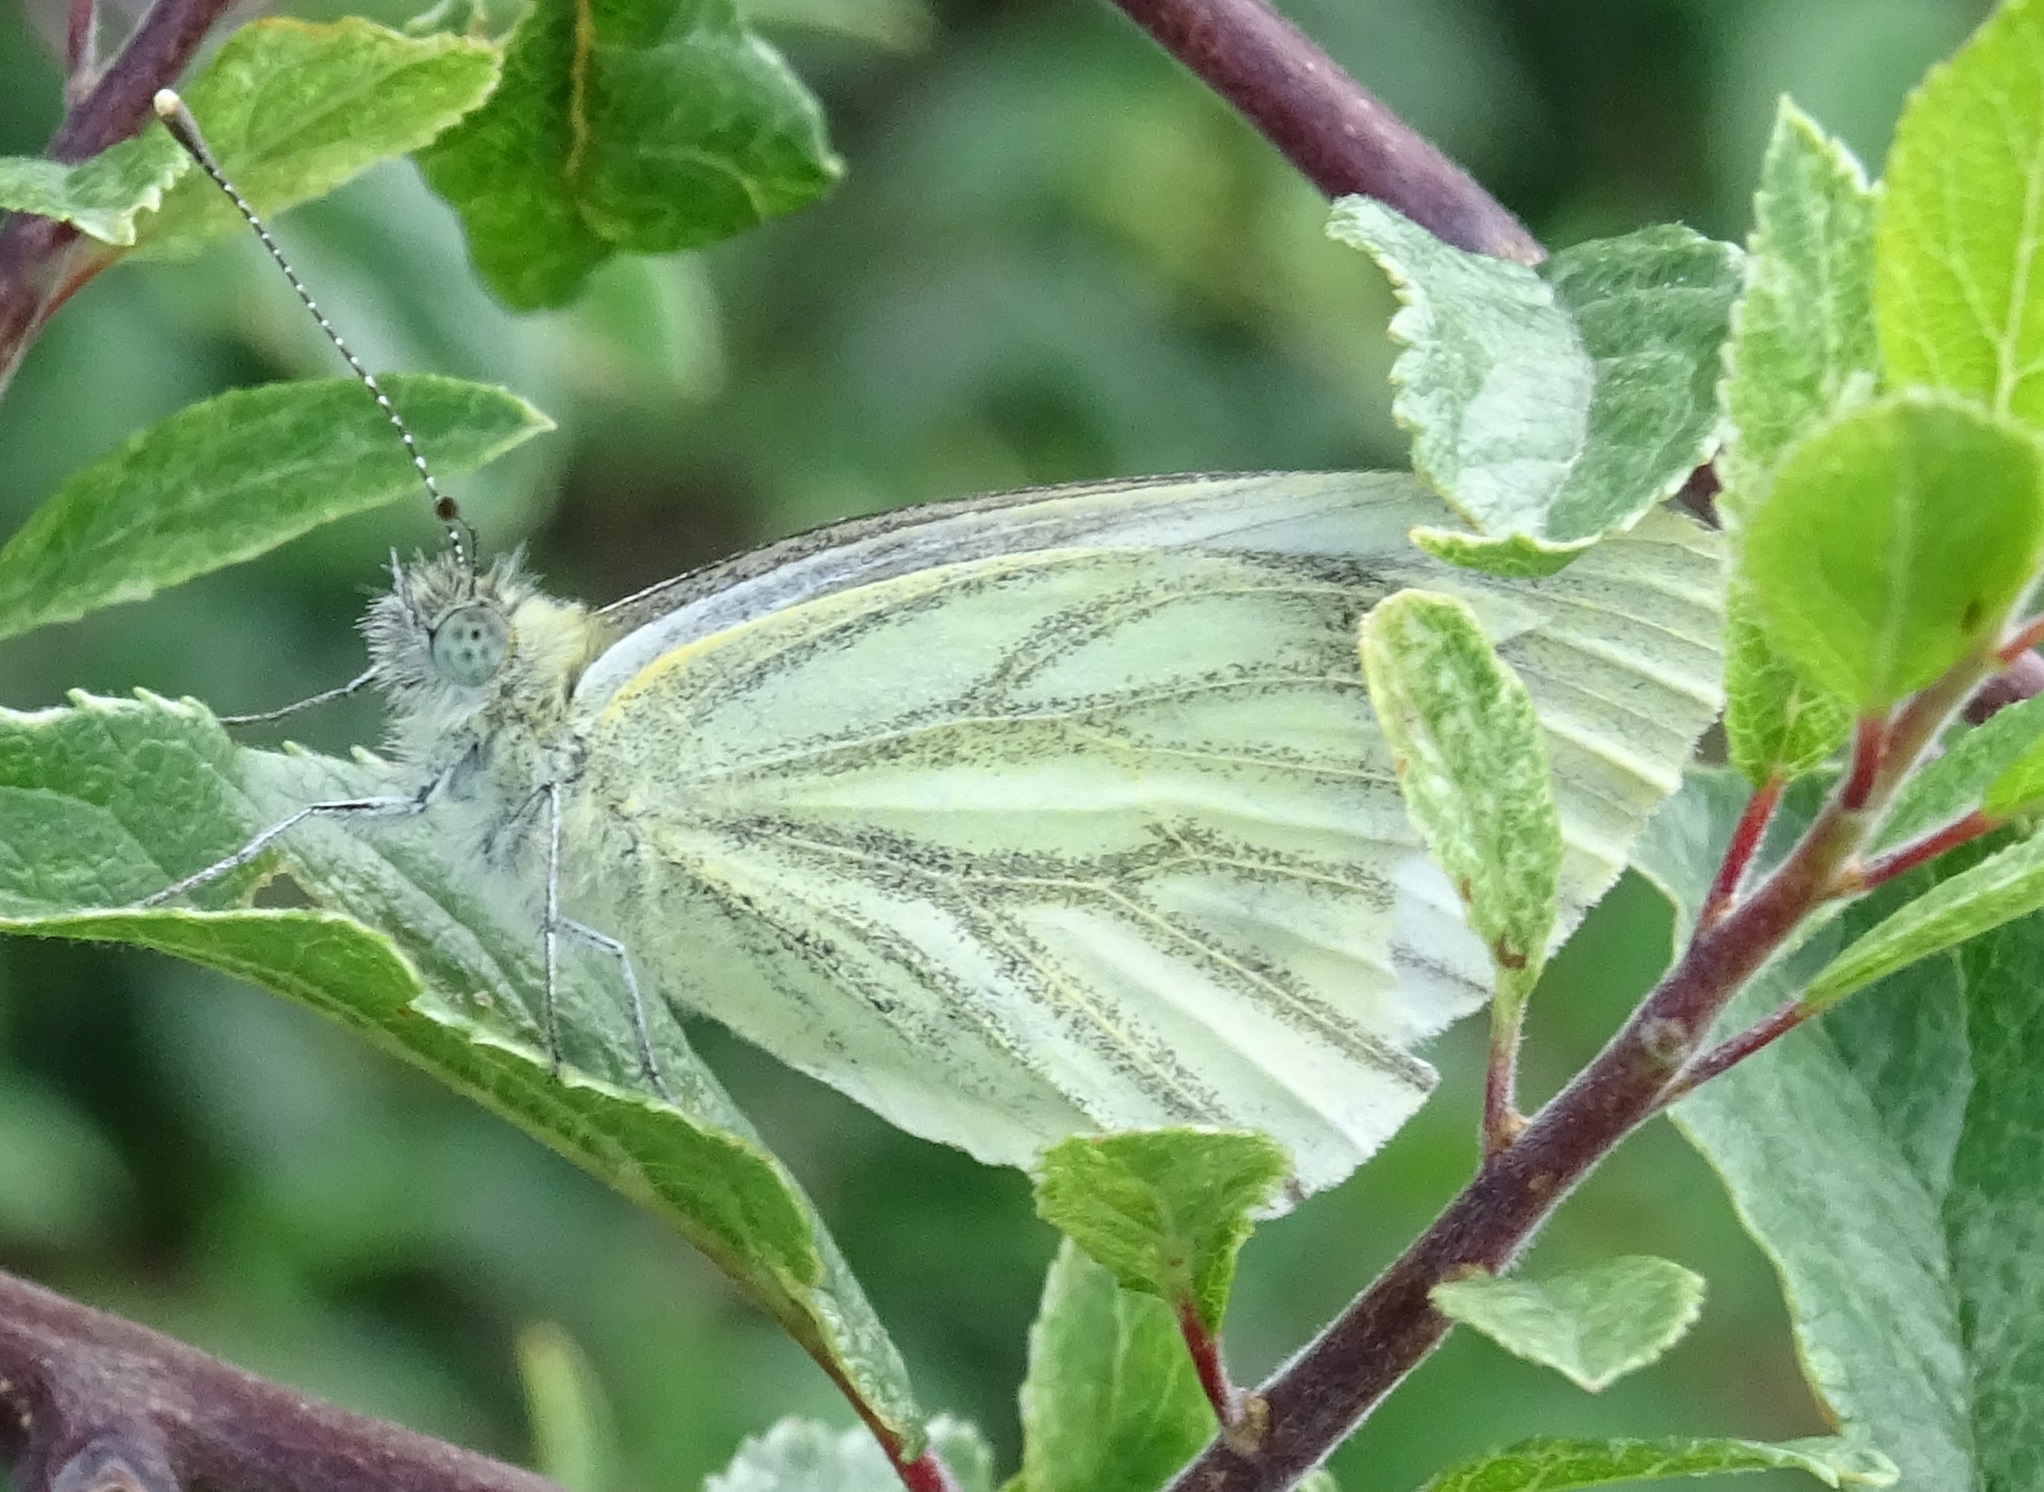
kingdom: Animalia
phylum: Arthropoda
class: Insecta
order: Lepidoptera
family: Pieridae
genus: Pieris
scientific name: Pieris napi
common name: Green-veined white
